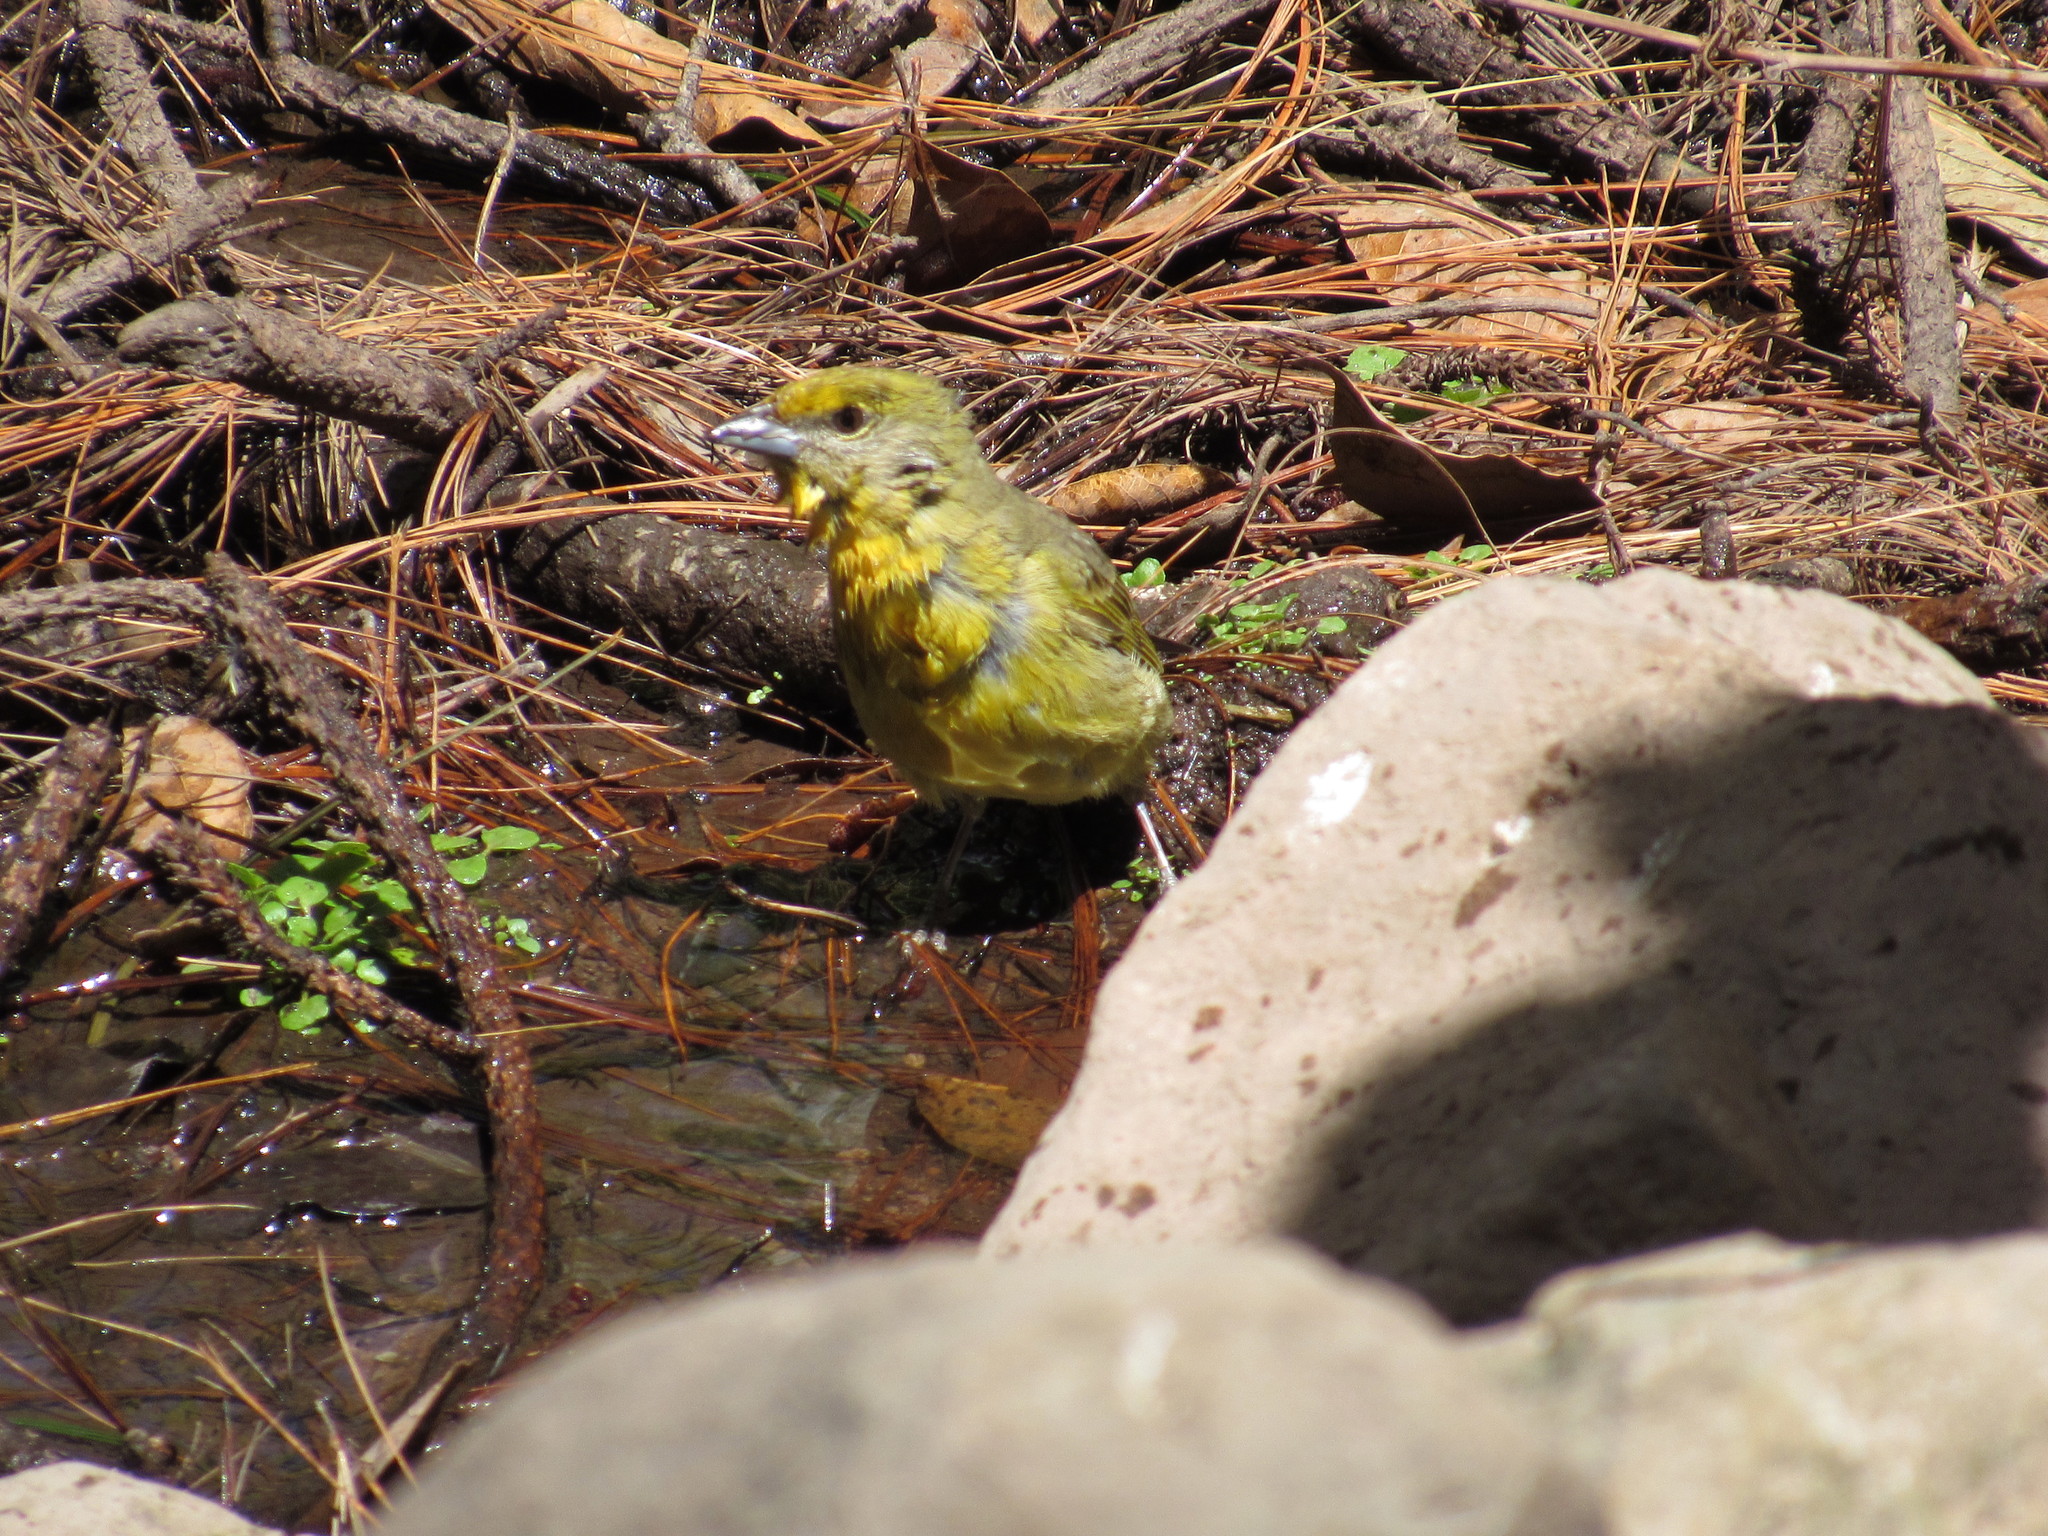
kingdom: Animalia
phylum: Chordata
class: Aves
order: Passeriformes
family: Cardinalidae
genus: Piranga
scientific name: Piranga flava
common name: Red tanager
